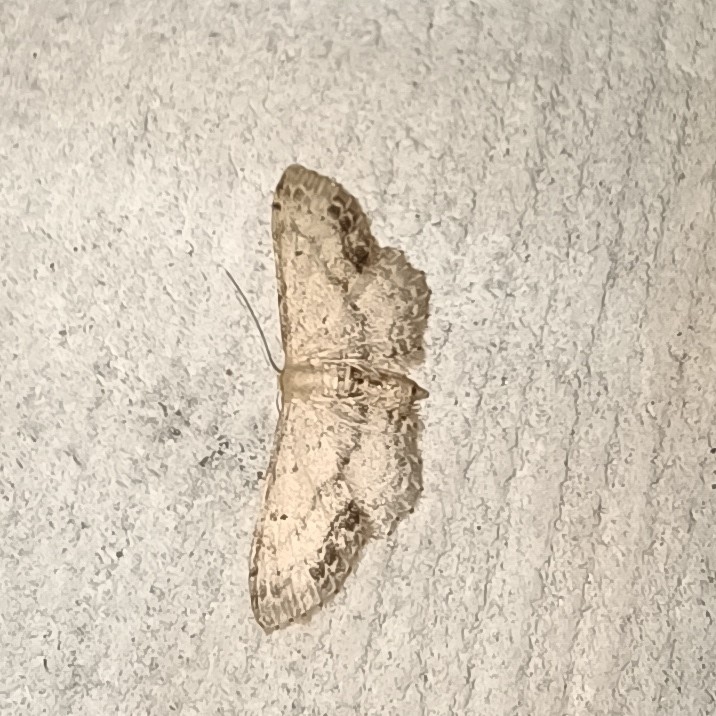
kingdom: Animalia
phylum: Arthropoda
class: Insecta
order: Lepidoptera
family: Geometridae
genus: Idaea
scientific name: Idaea dimidiata
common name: Single-dotted wave
